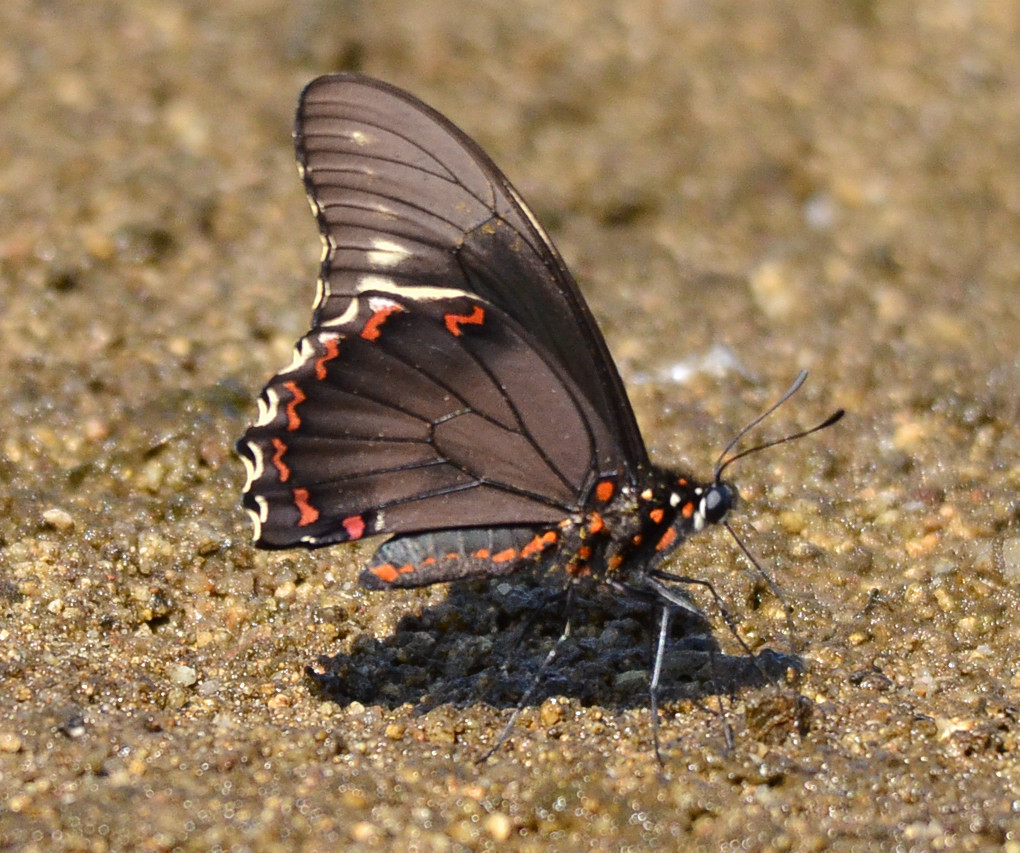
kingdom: Animalia
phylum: Arthropoda
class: Insecta
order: Lepidoptera
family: Papilionidae
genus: Battus
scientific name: Battus polydamas
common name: Polydamas swallowtail
